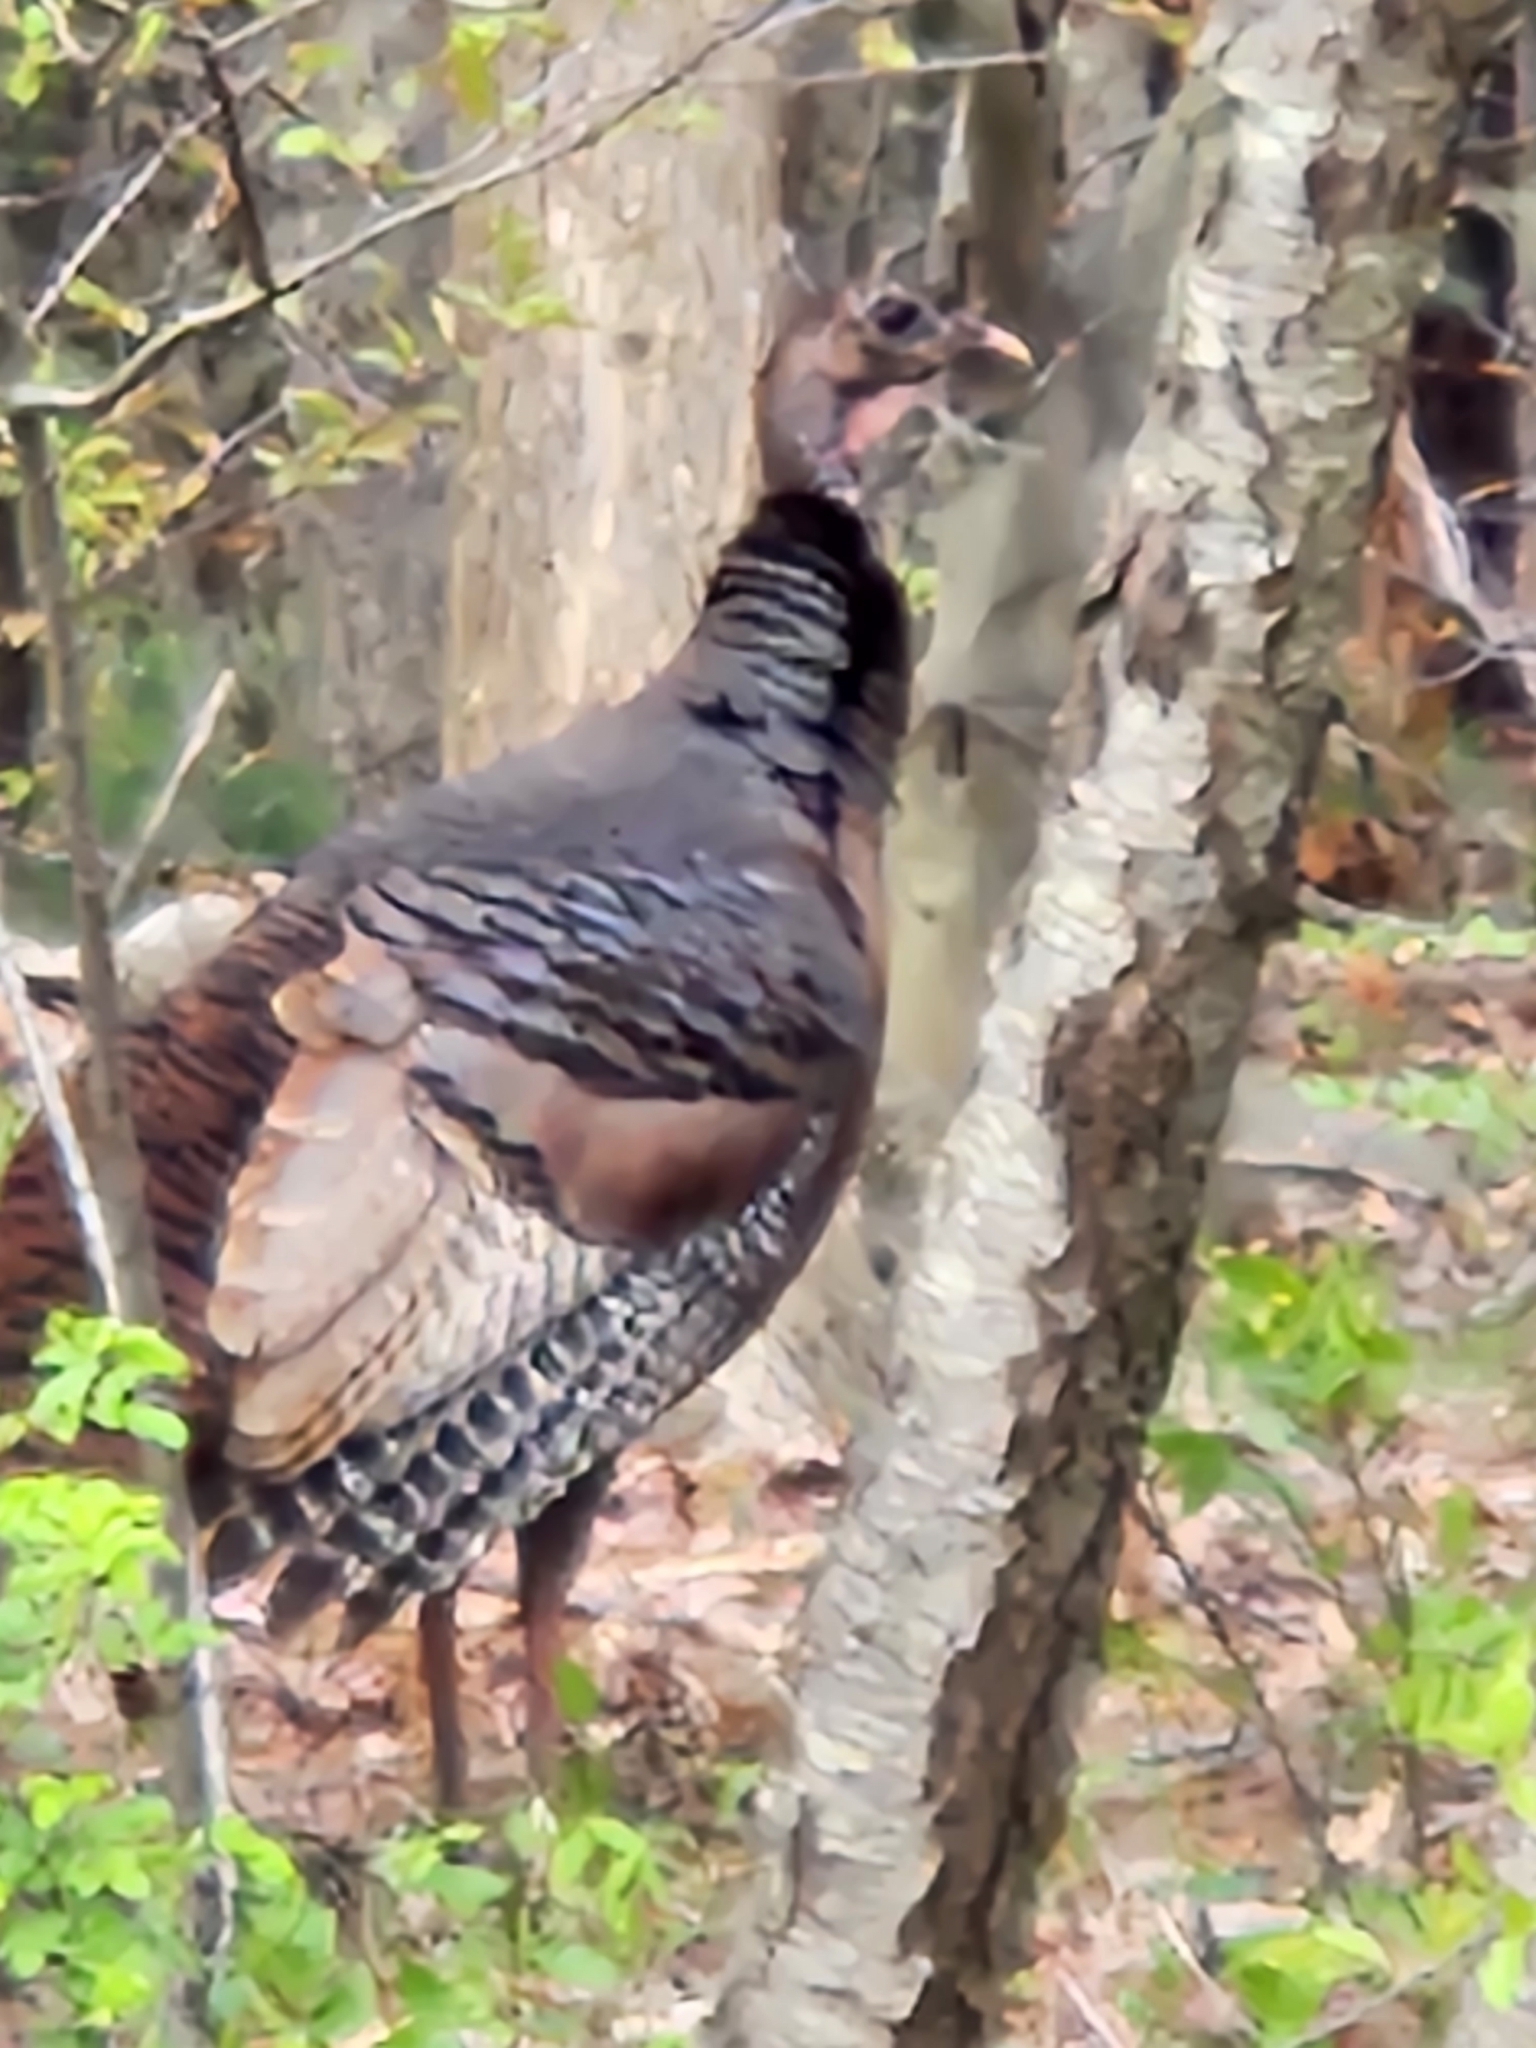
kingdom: Animalia
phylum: Chordata
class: Aves
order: Galliformes
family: Phasianidae
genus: Meleagris
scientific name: Meleagris gallopavo
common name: Wild turkey
